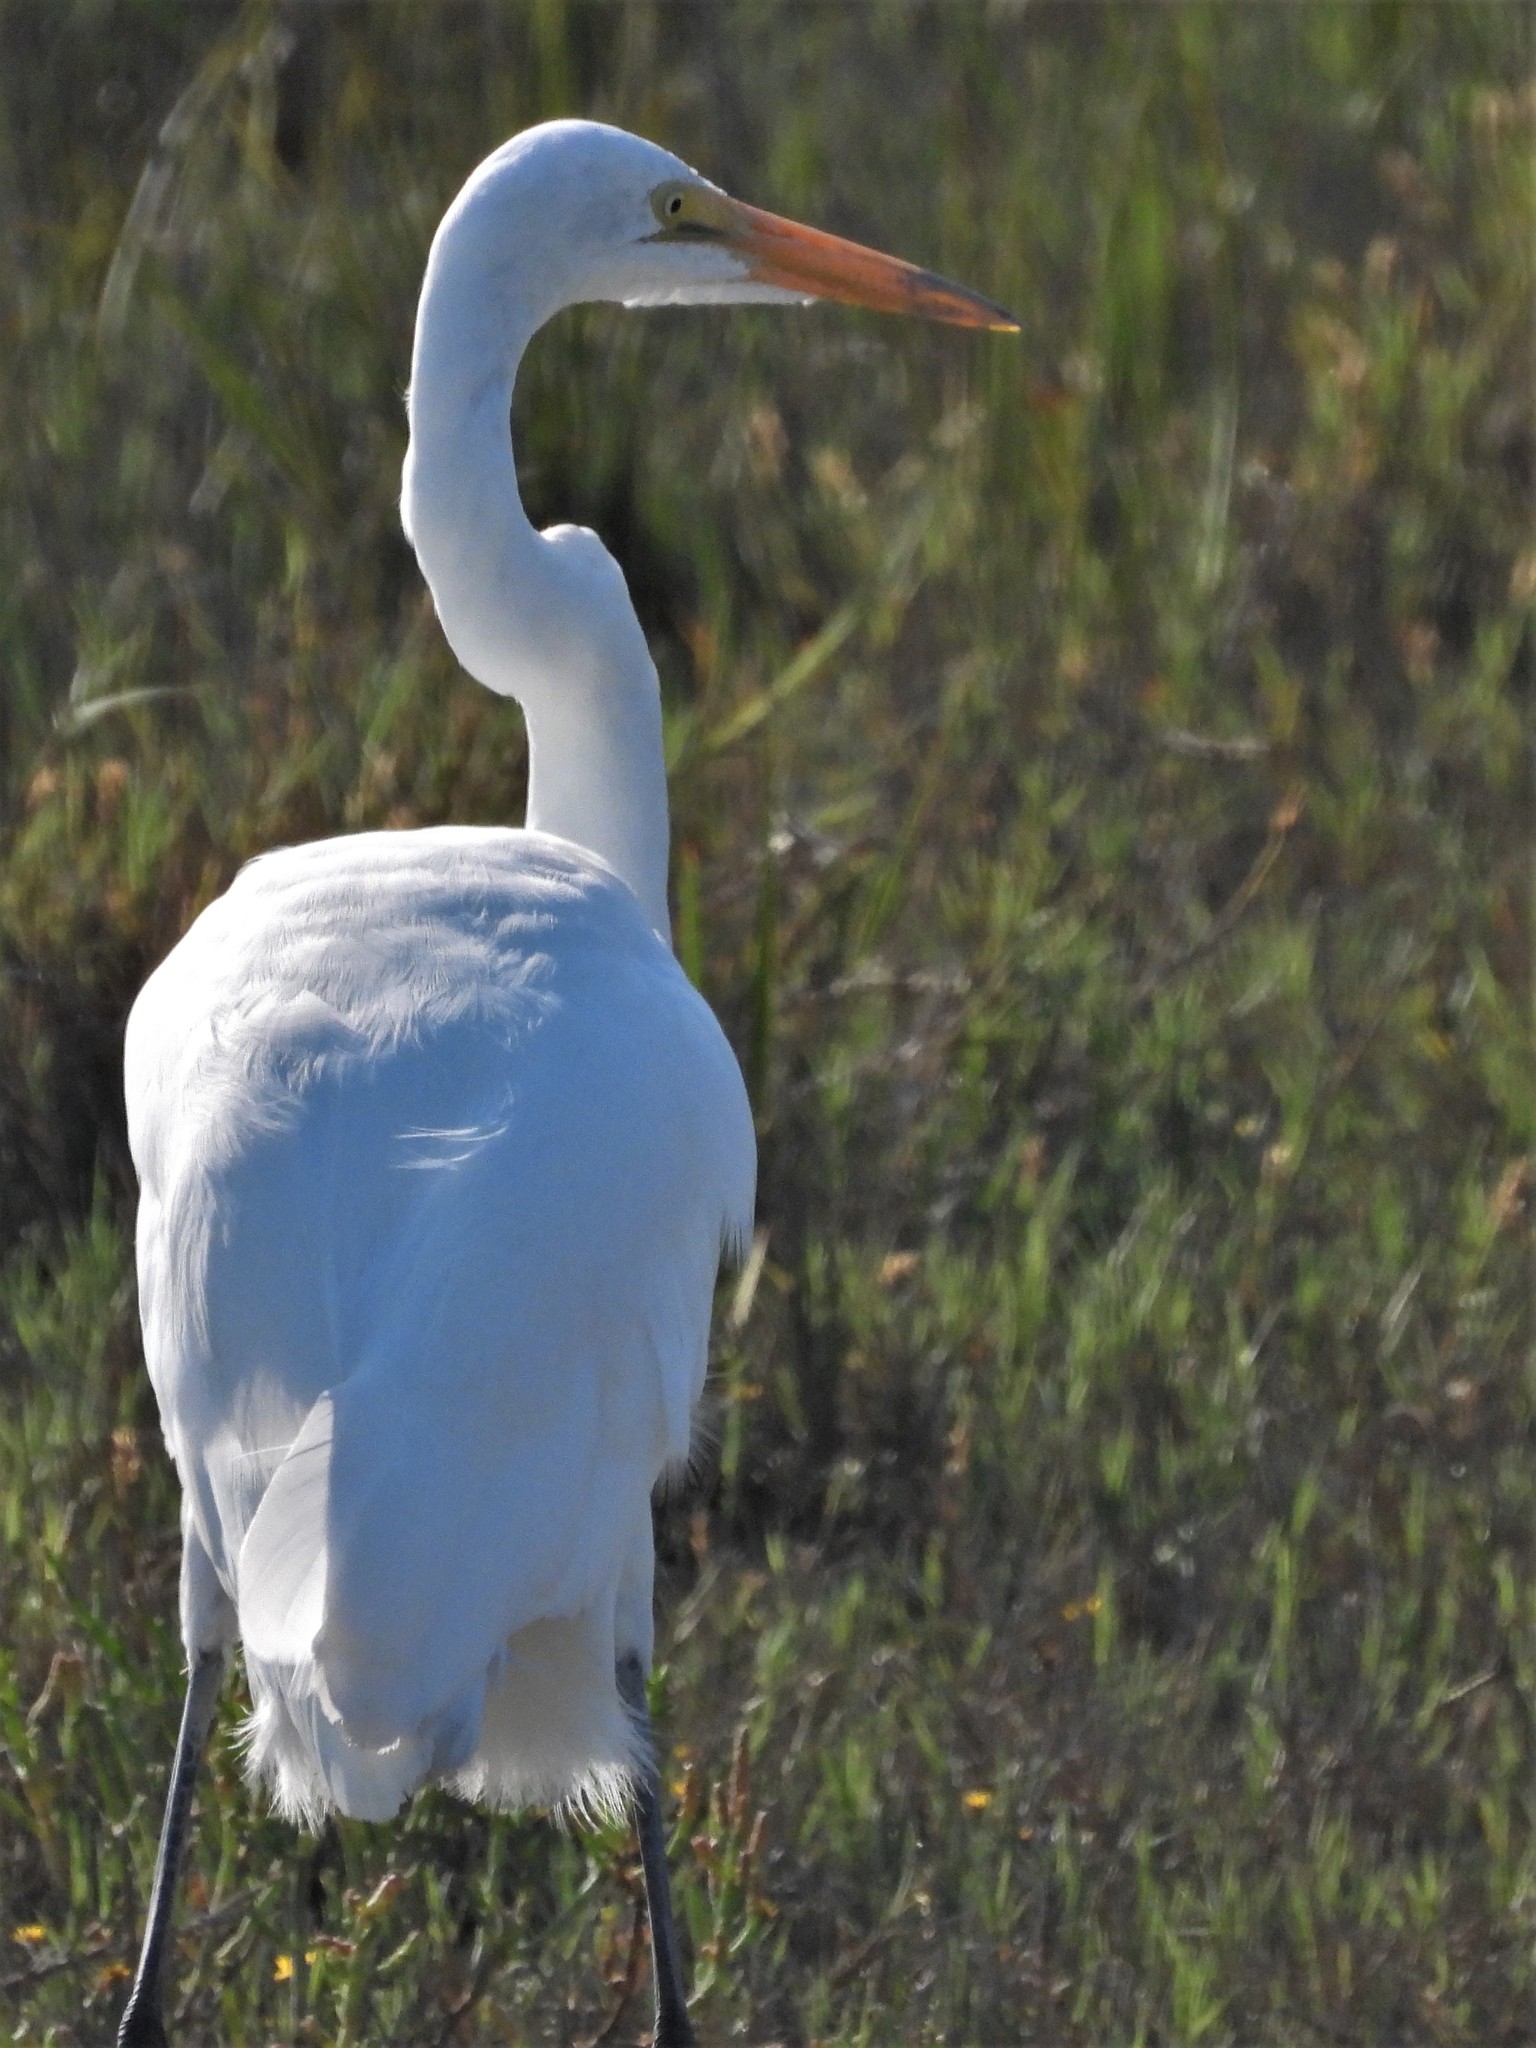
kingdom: Animalia
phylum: Chordata
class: Aves
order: Pelecaniformes
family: Ardeidae
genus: Ardea
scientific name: Ardea alba
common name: Great egret
